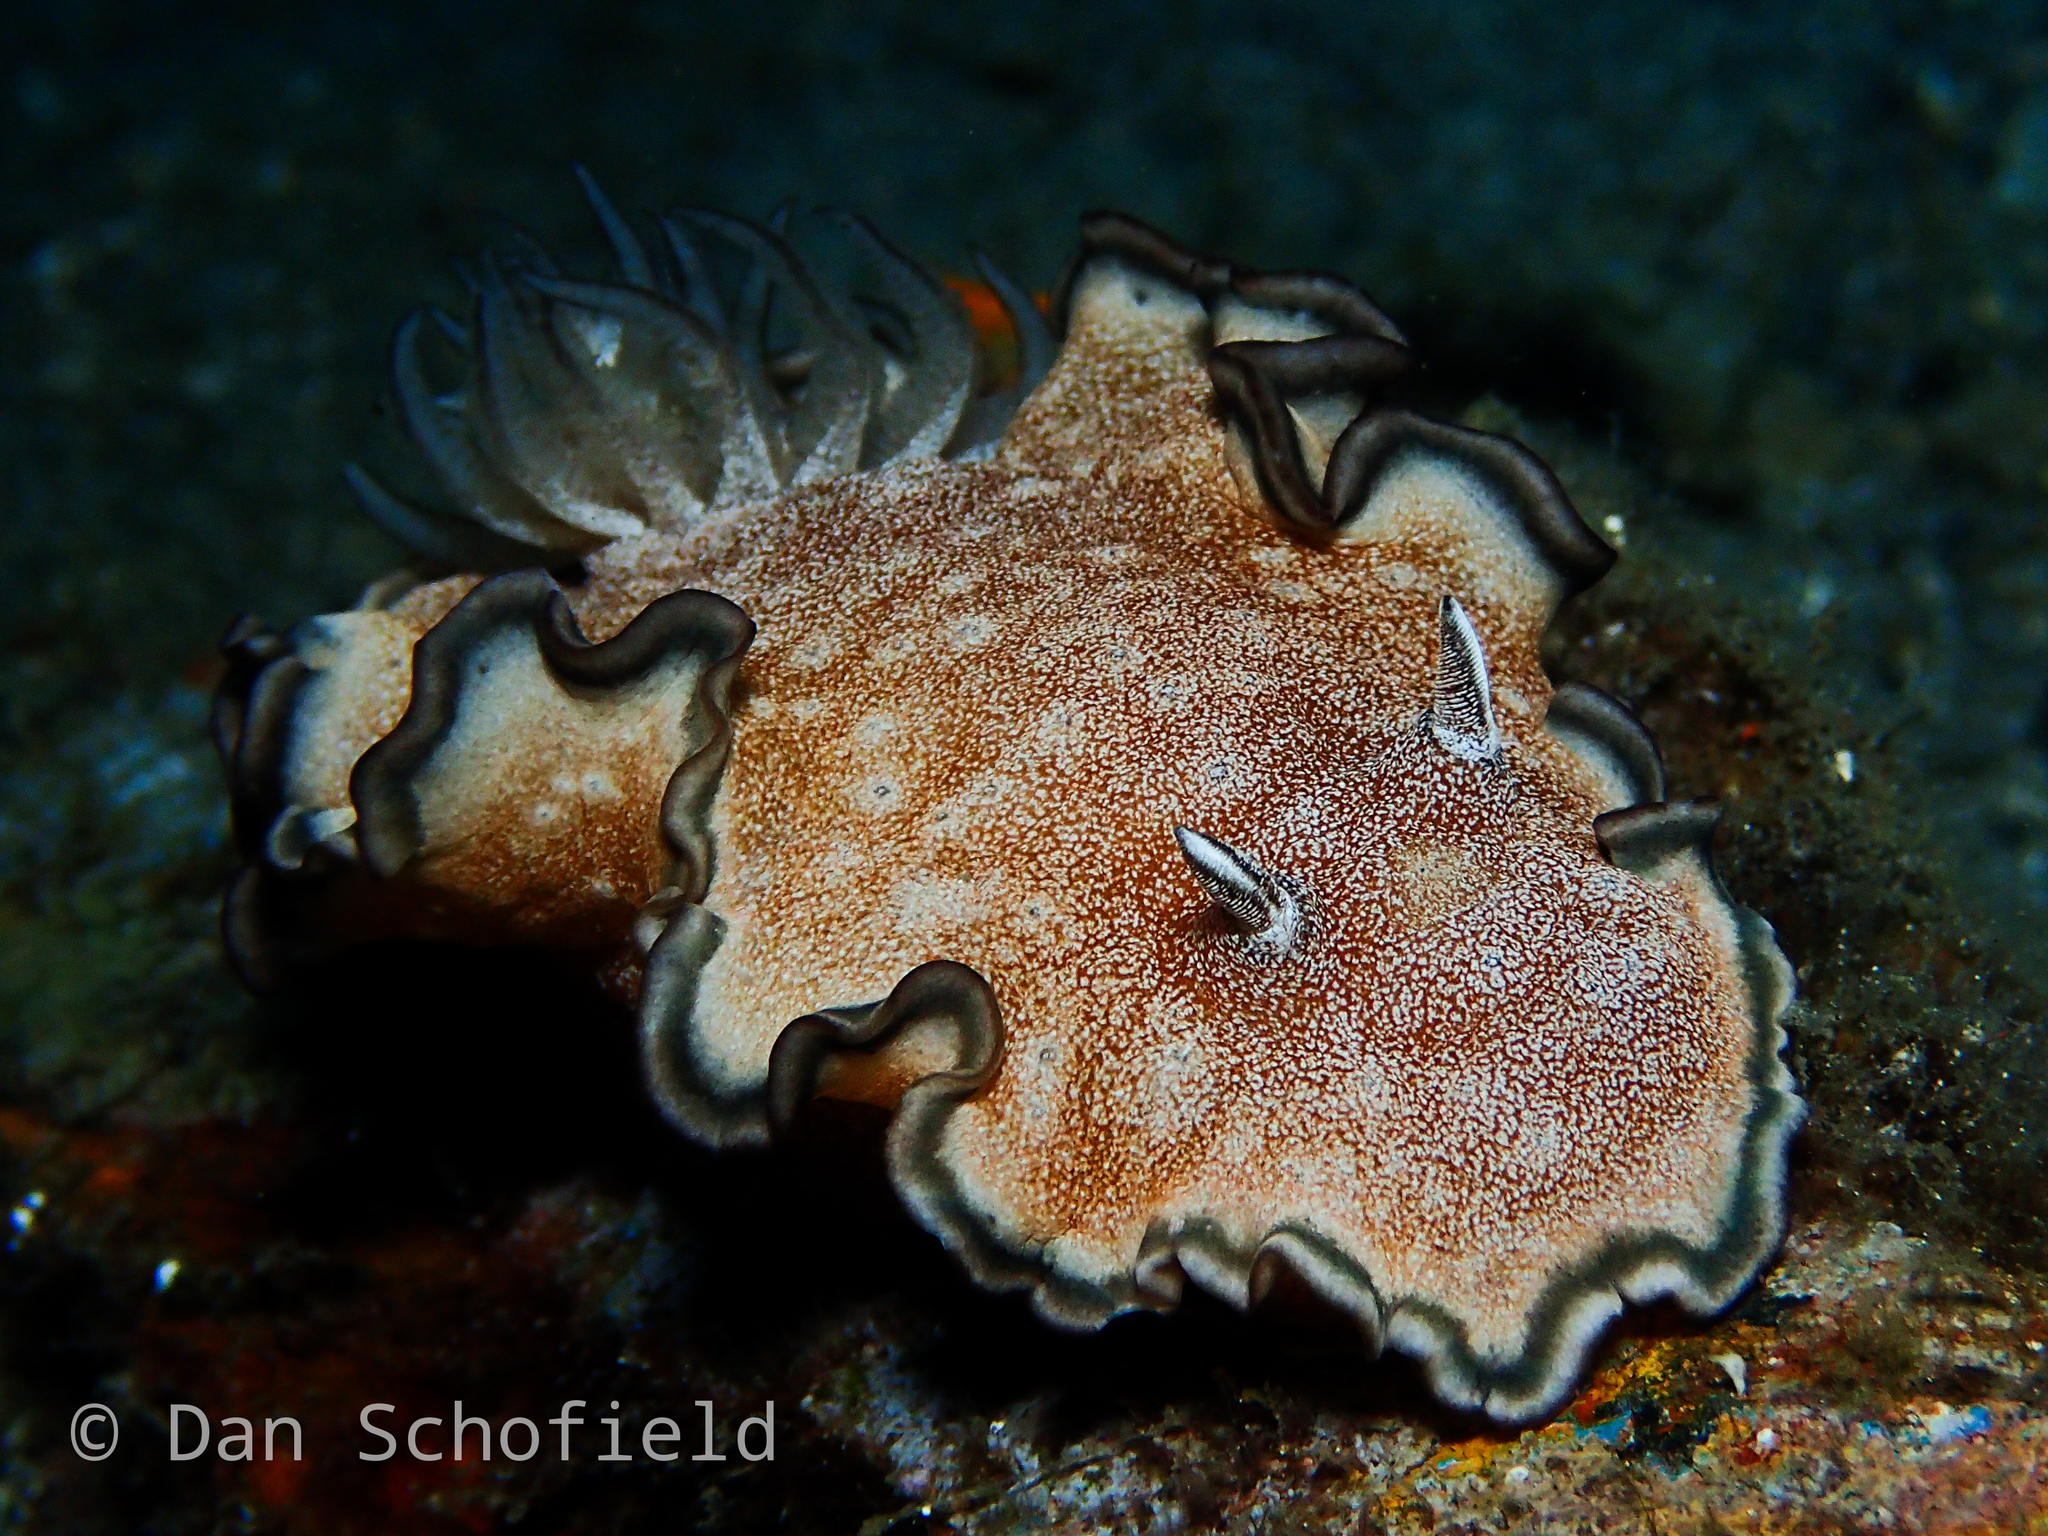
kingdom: Animalia
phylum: Mollusca
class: Gastropoda
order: Nudibranchia
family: Chromodorididae
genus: Glossodoris
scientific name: Glossodoris hikuerensis
